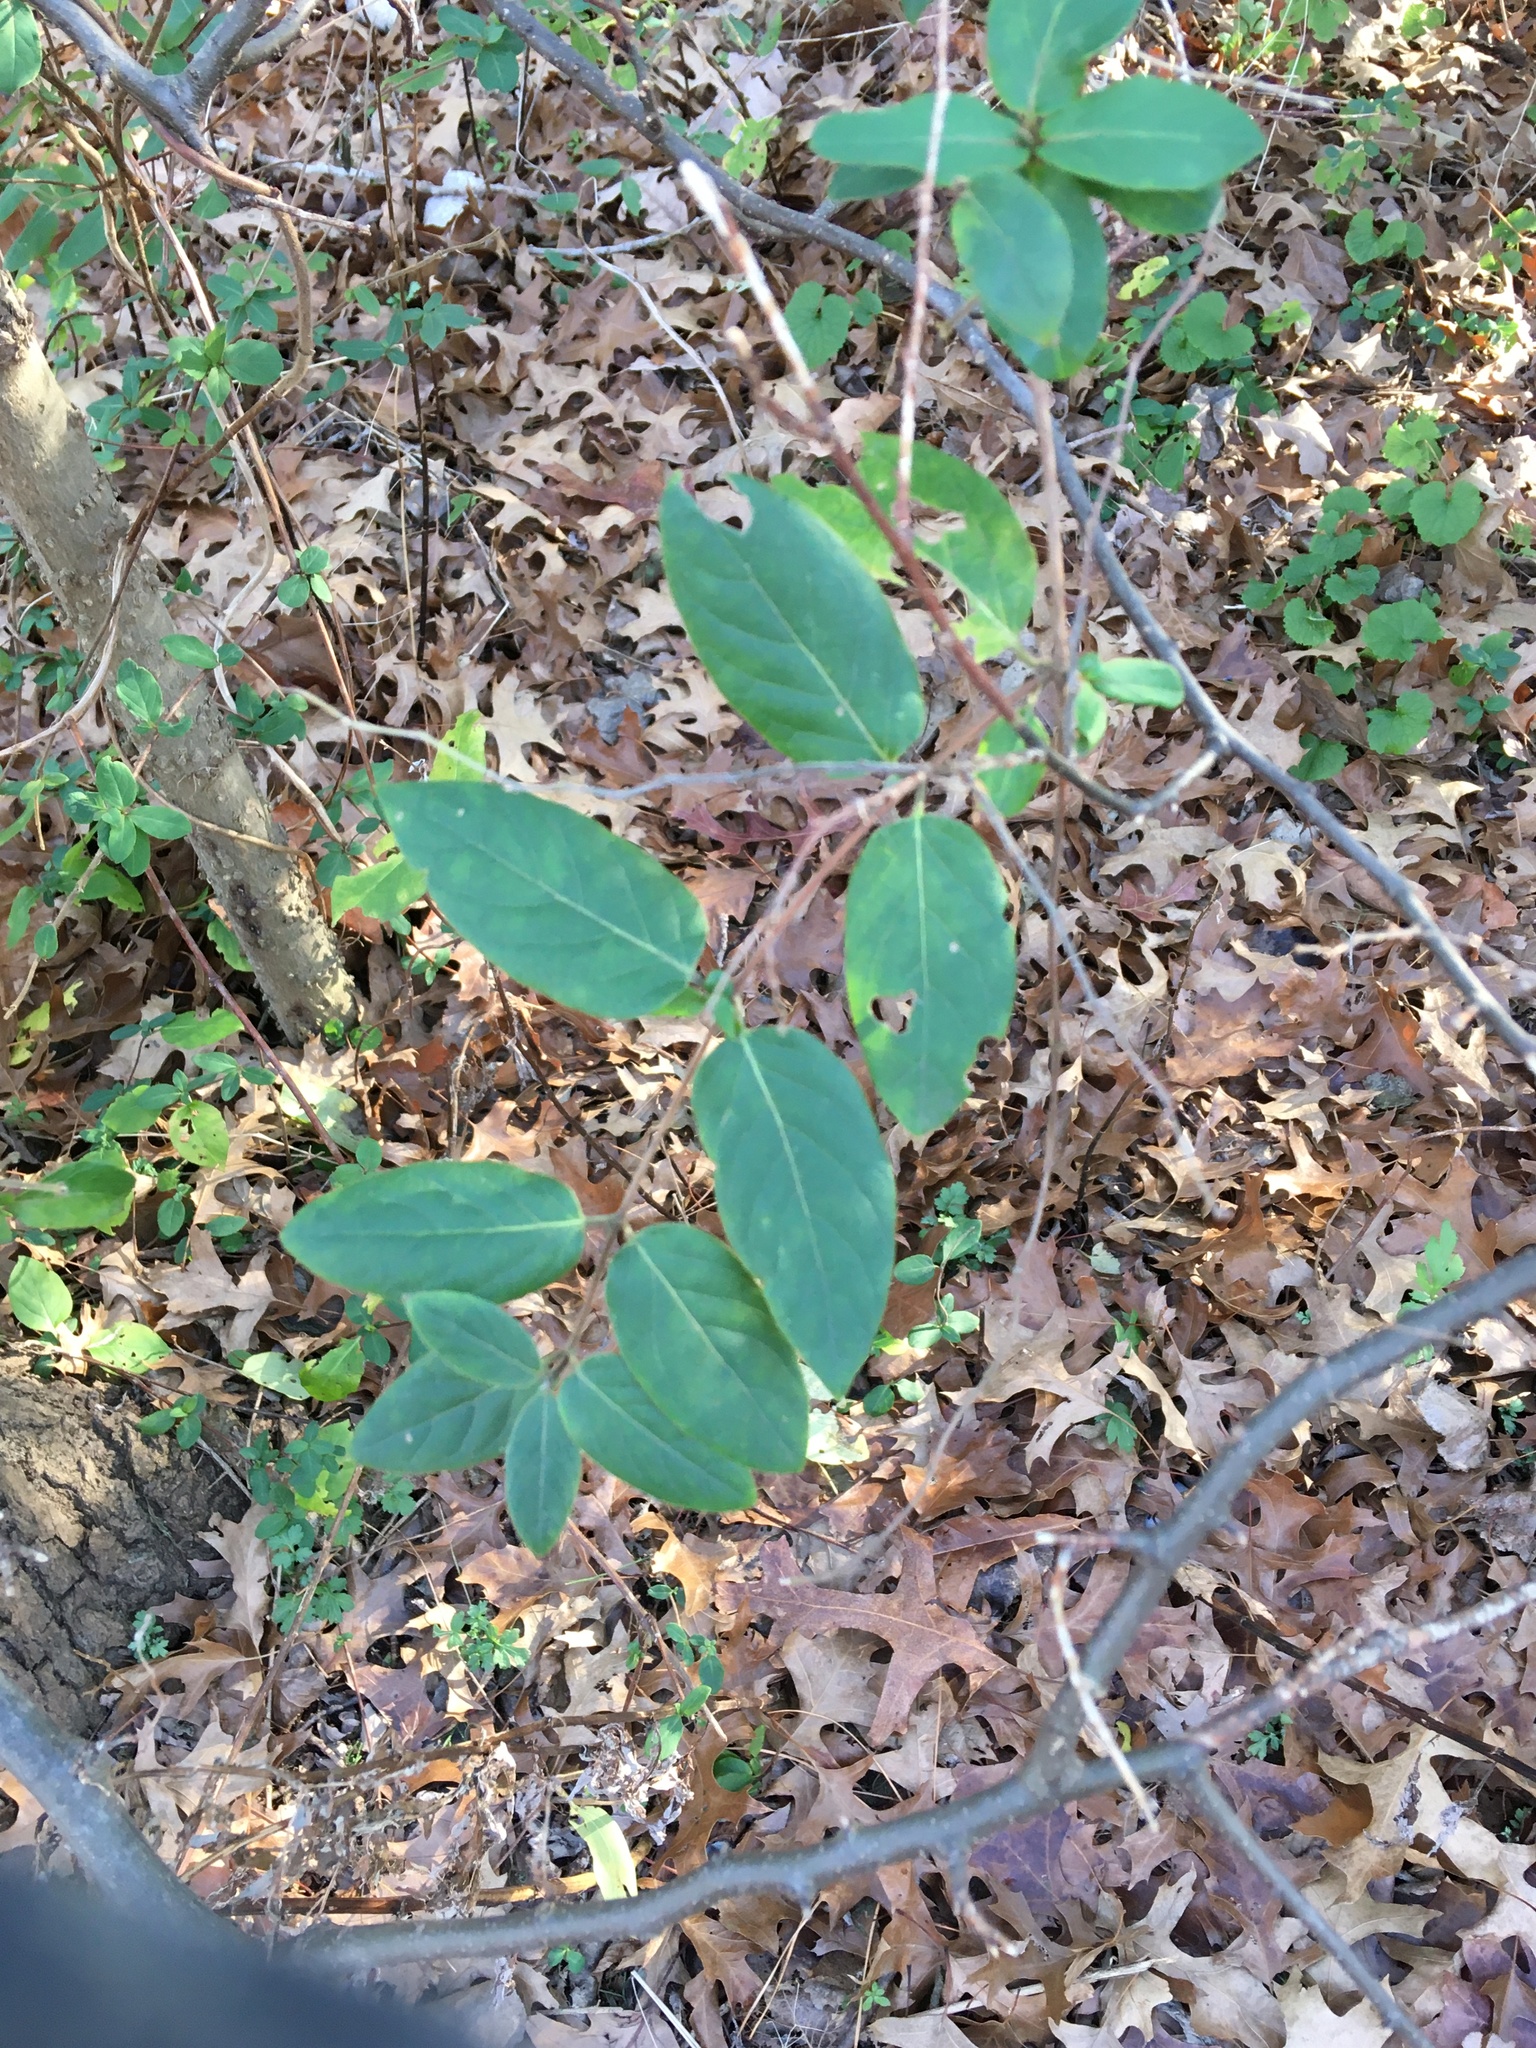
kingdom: Plantae
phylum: Tracheophyta
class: Magnoliopsida
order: Dipsacales
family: Caprifoliaceae
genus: Lonicera
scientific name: Lonicera japonica
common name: Japanese honeysuckle
